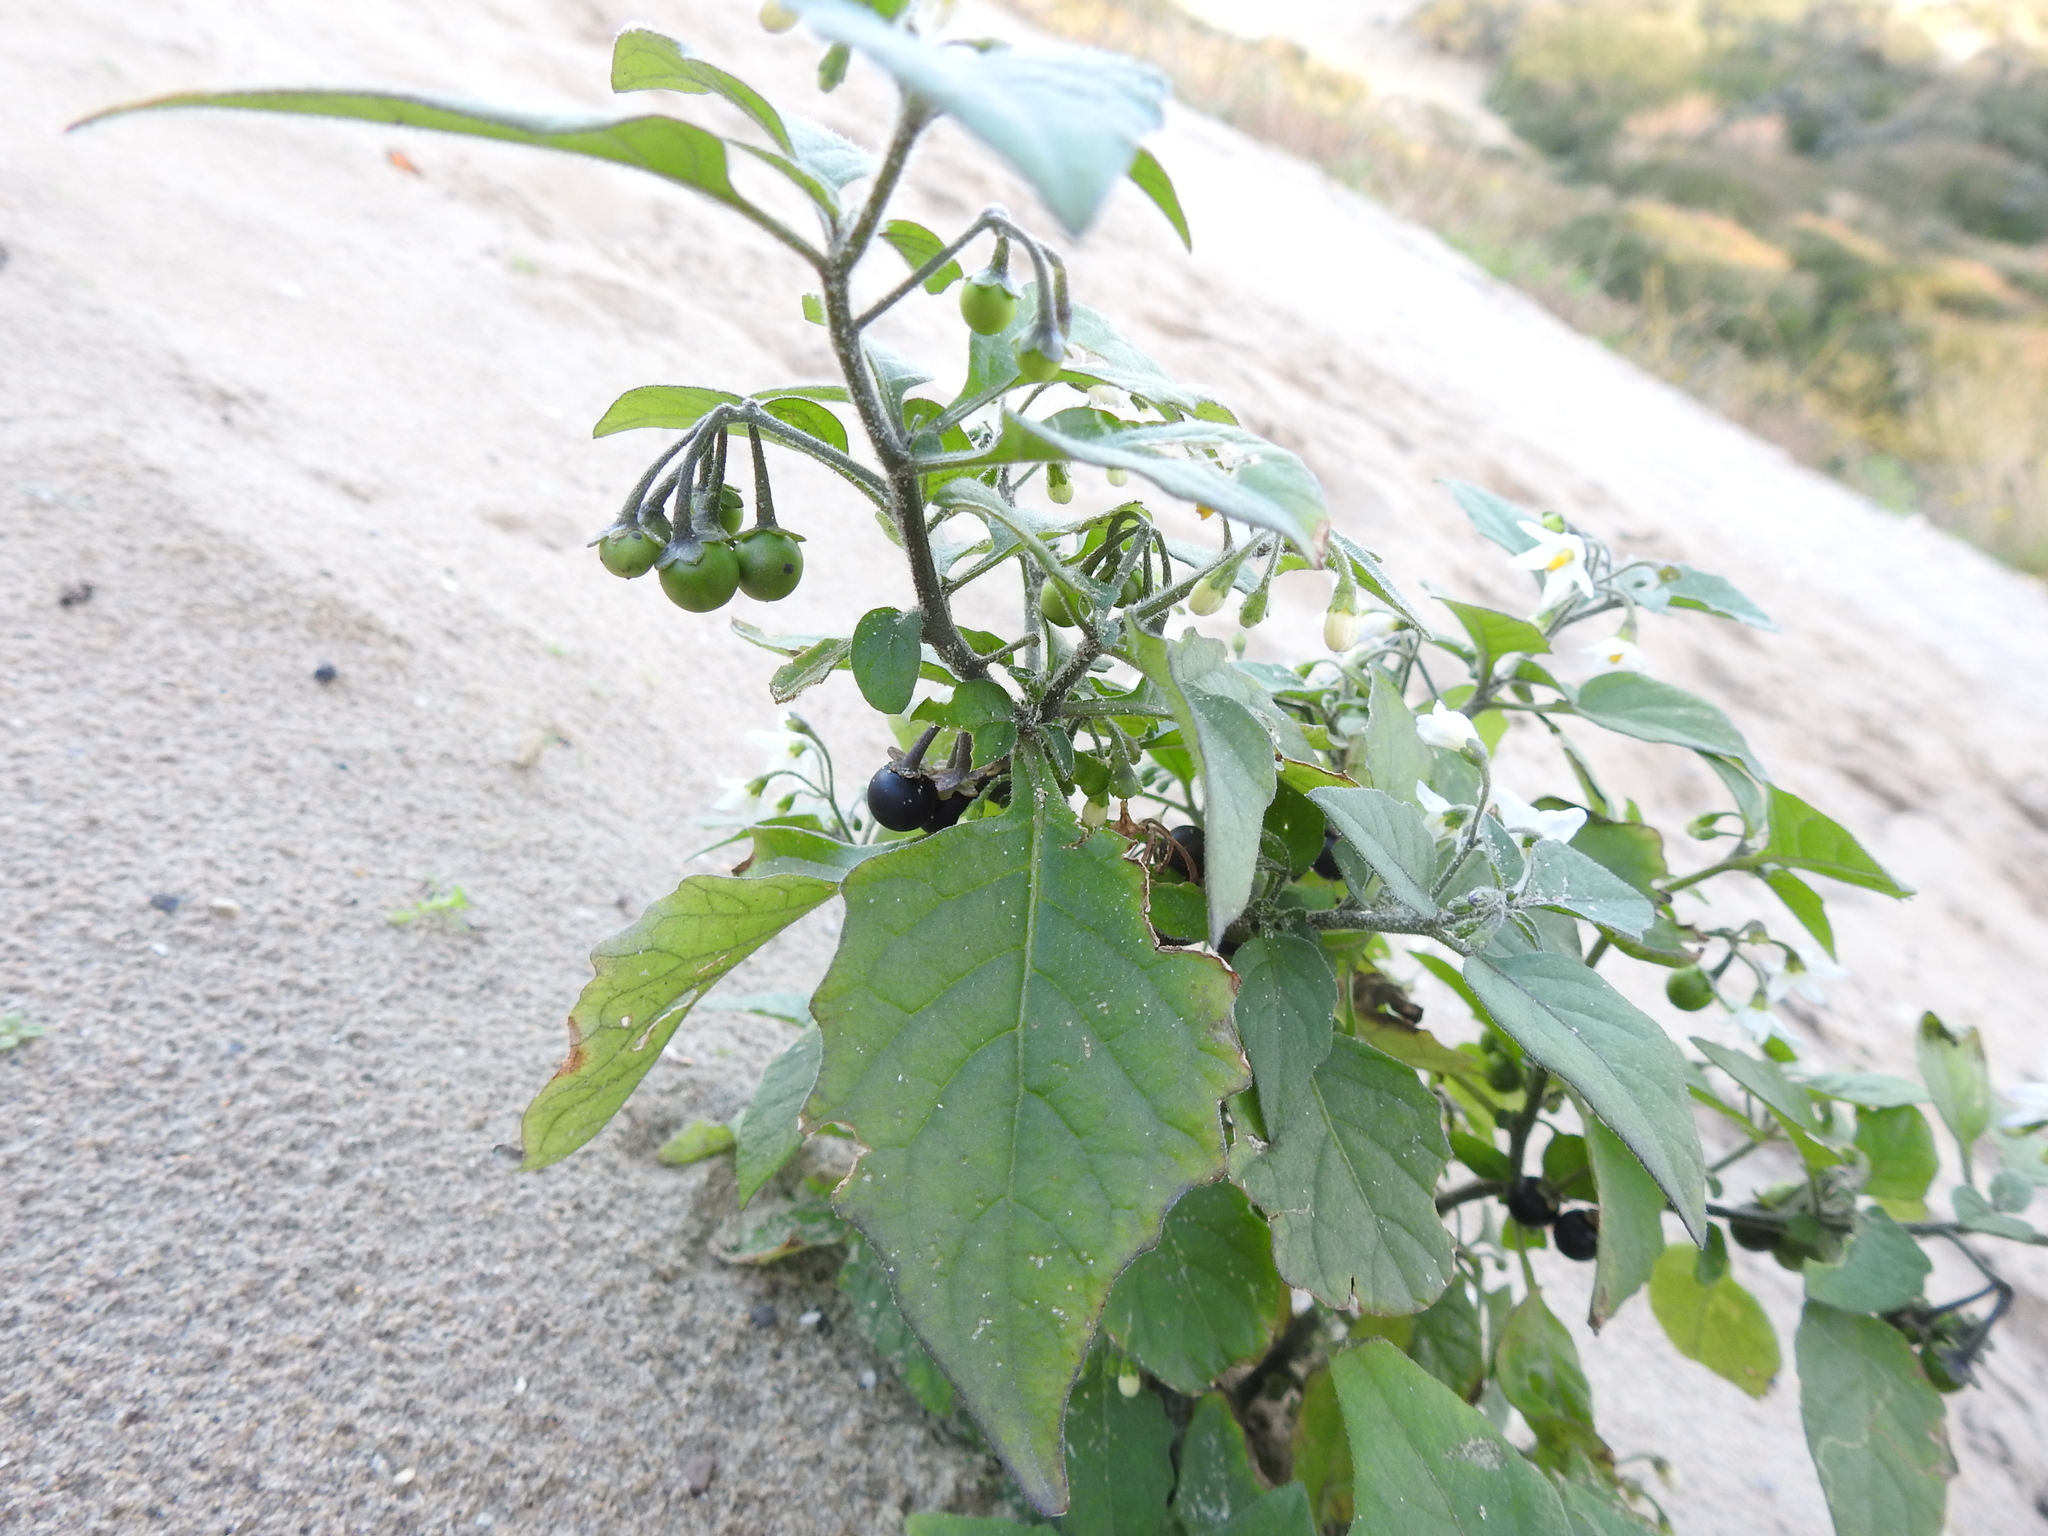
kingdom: Plantae
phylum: Tracheophyta
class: Magnoliopsida
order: Solanales
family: Solanaceae
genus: Solanum
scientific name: Solanum nigrum
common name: Black nightshade
